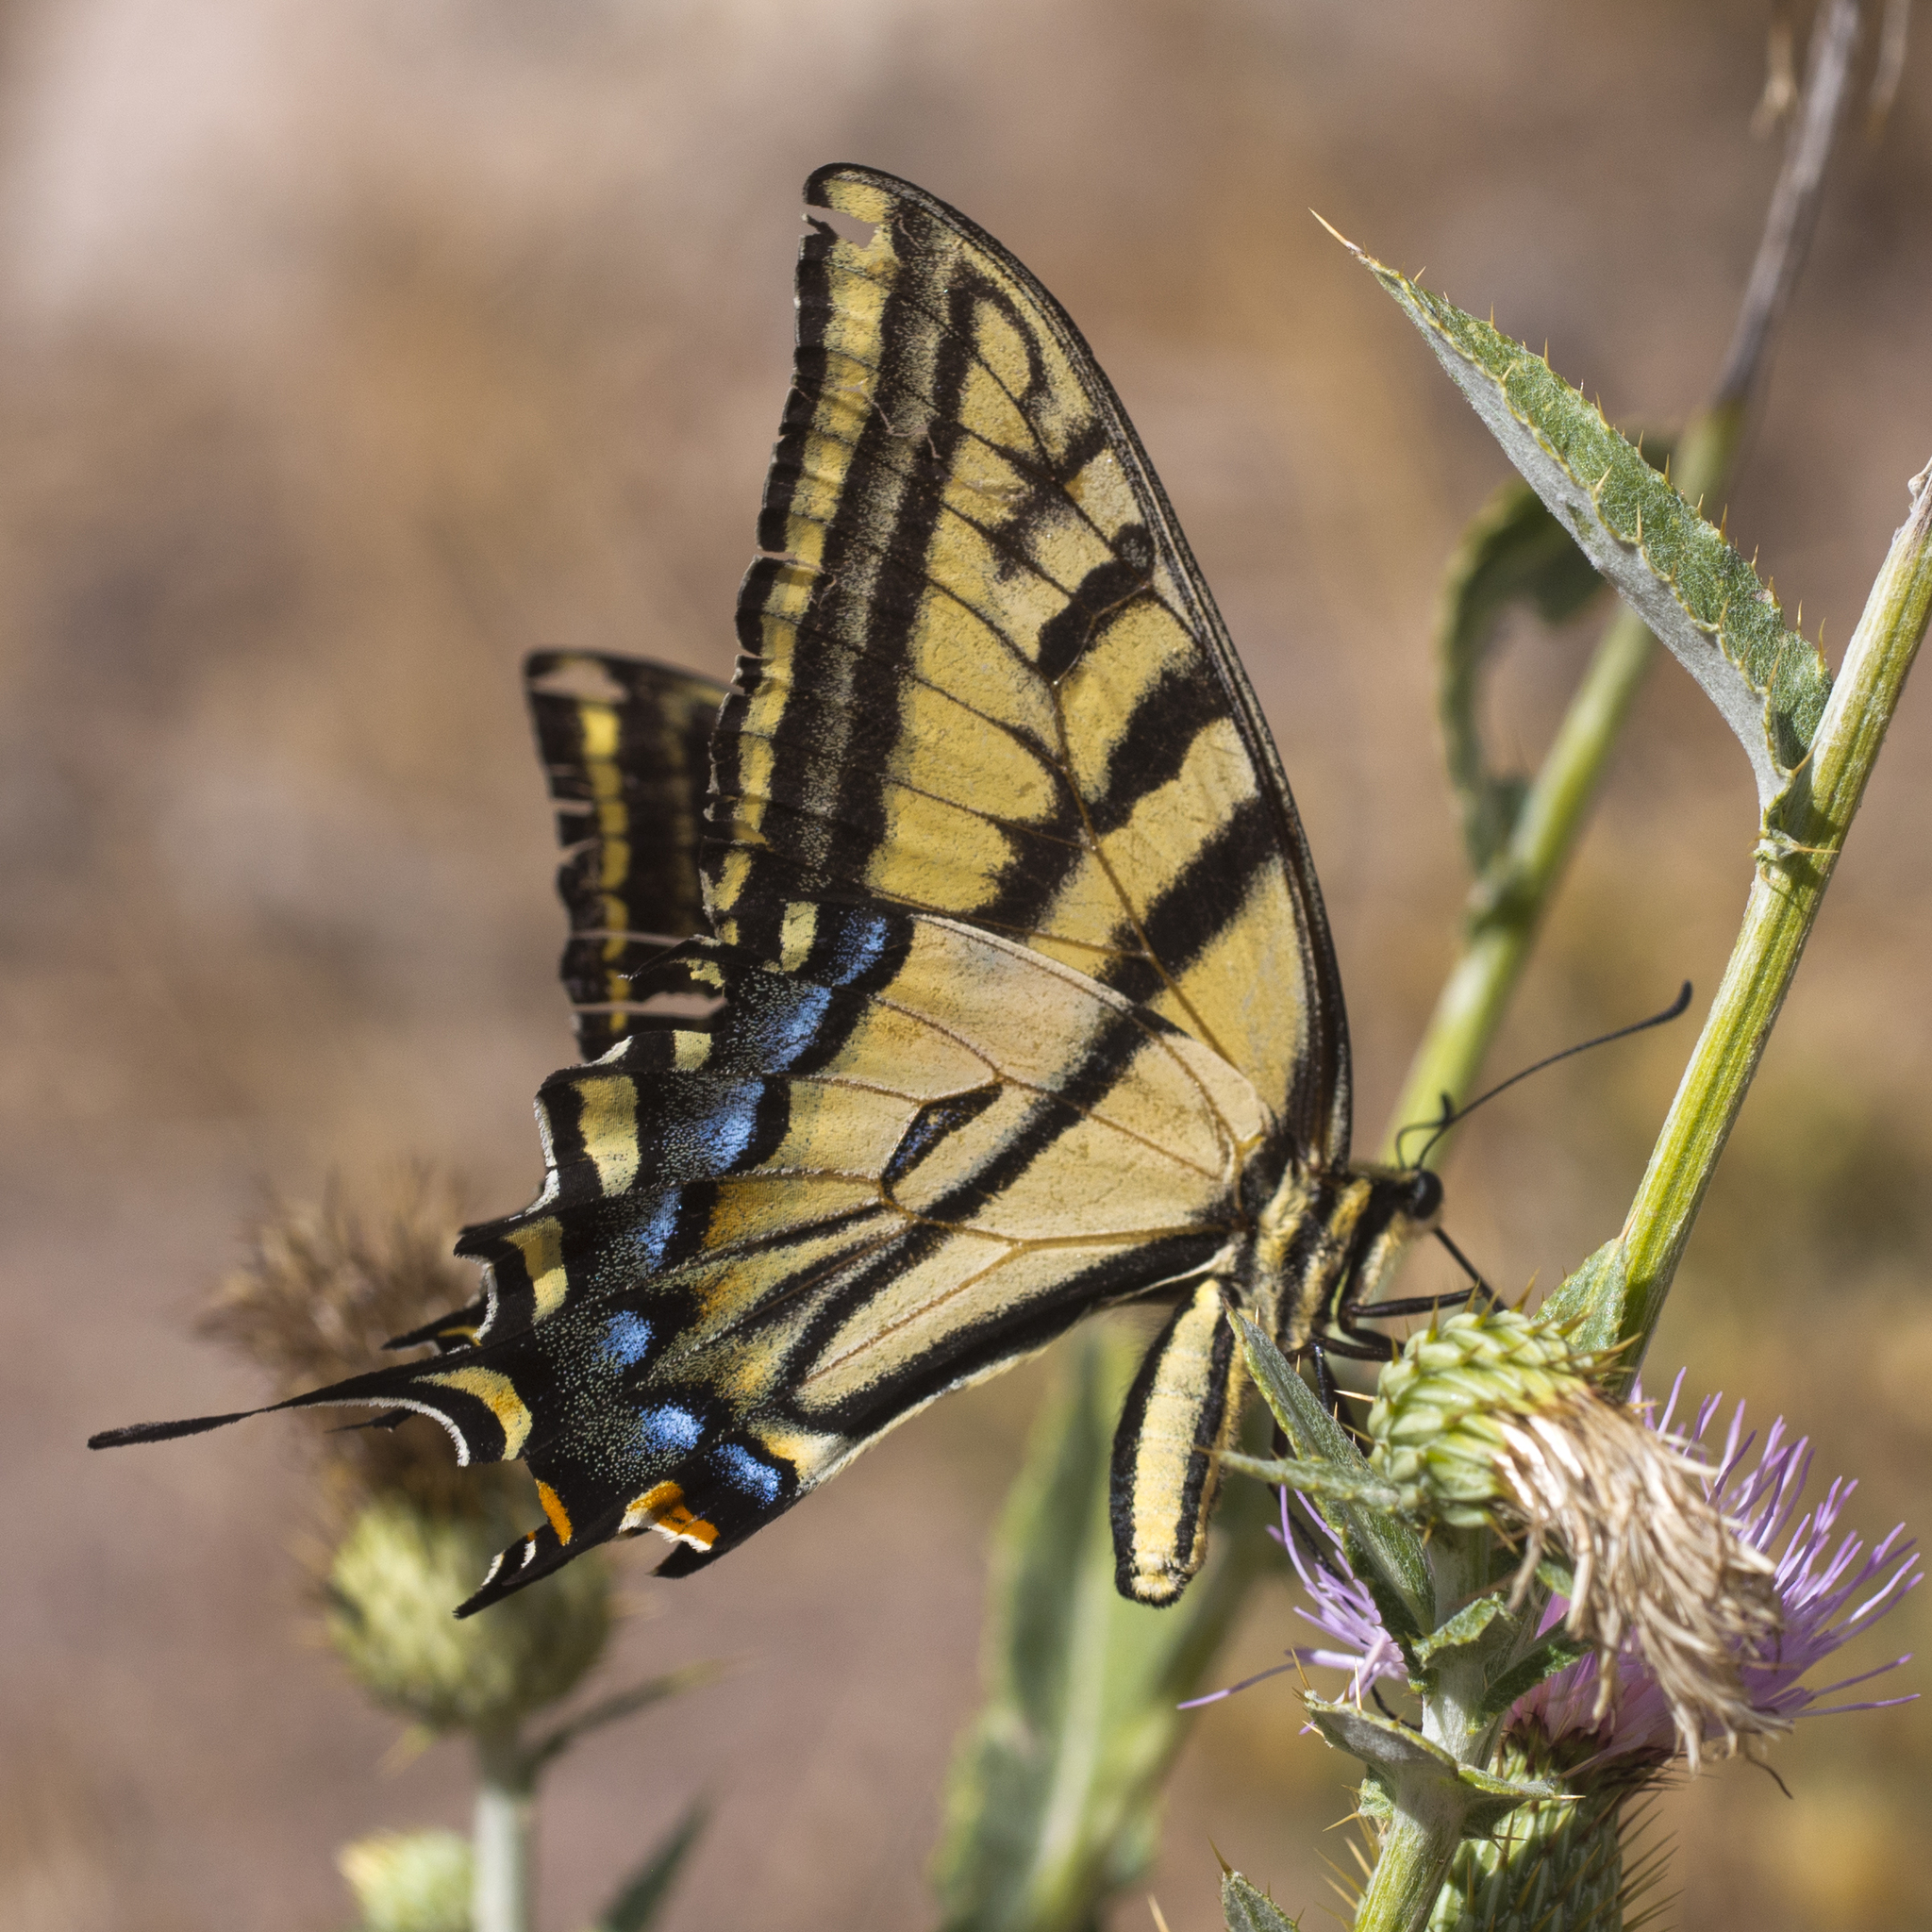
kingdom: Animalia
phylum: Arthropoda
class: Insecta
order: Lepidoptera
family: Papilionidae
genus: Papilio
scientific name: Papilio multicaudata
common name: Two-tailed tiger swallowtail
